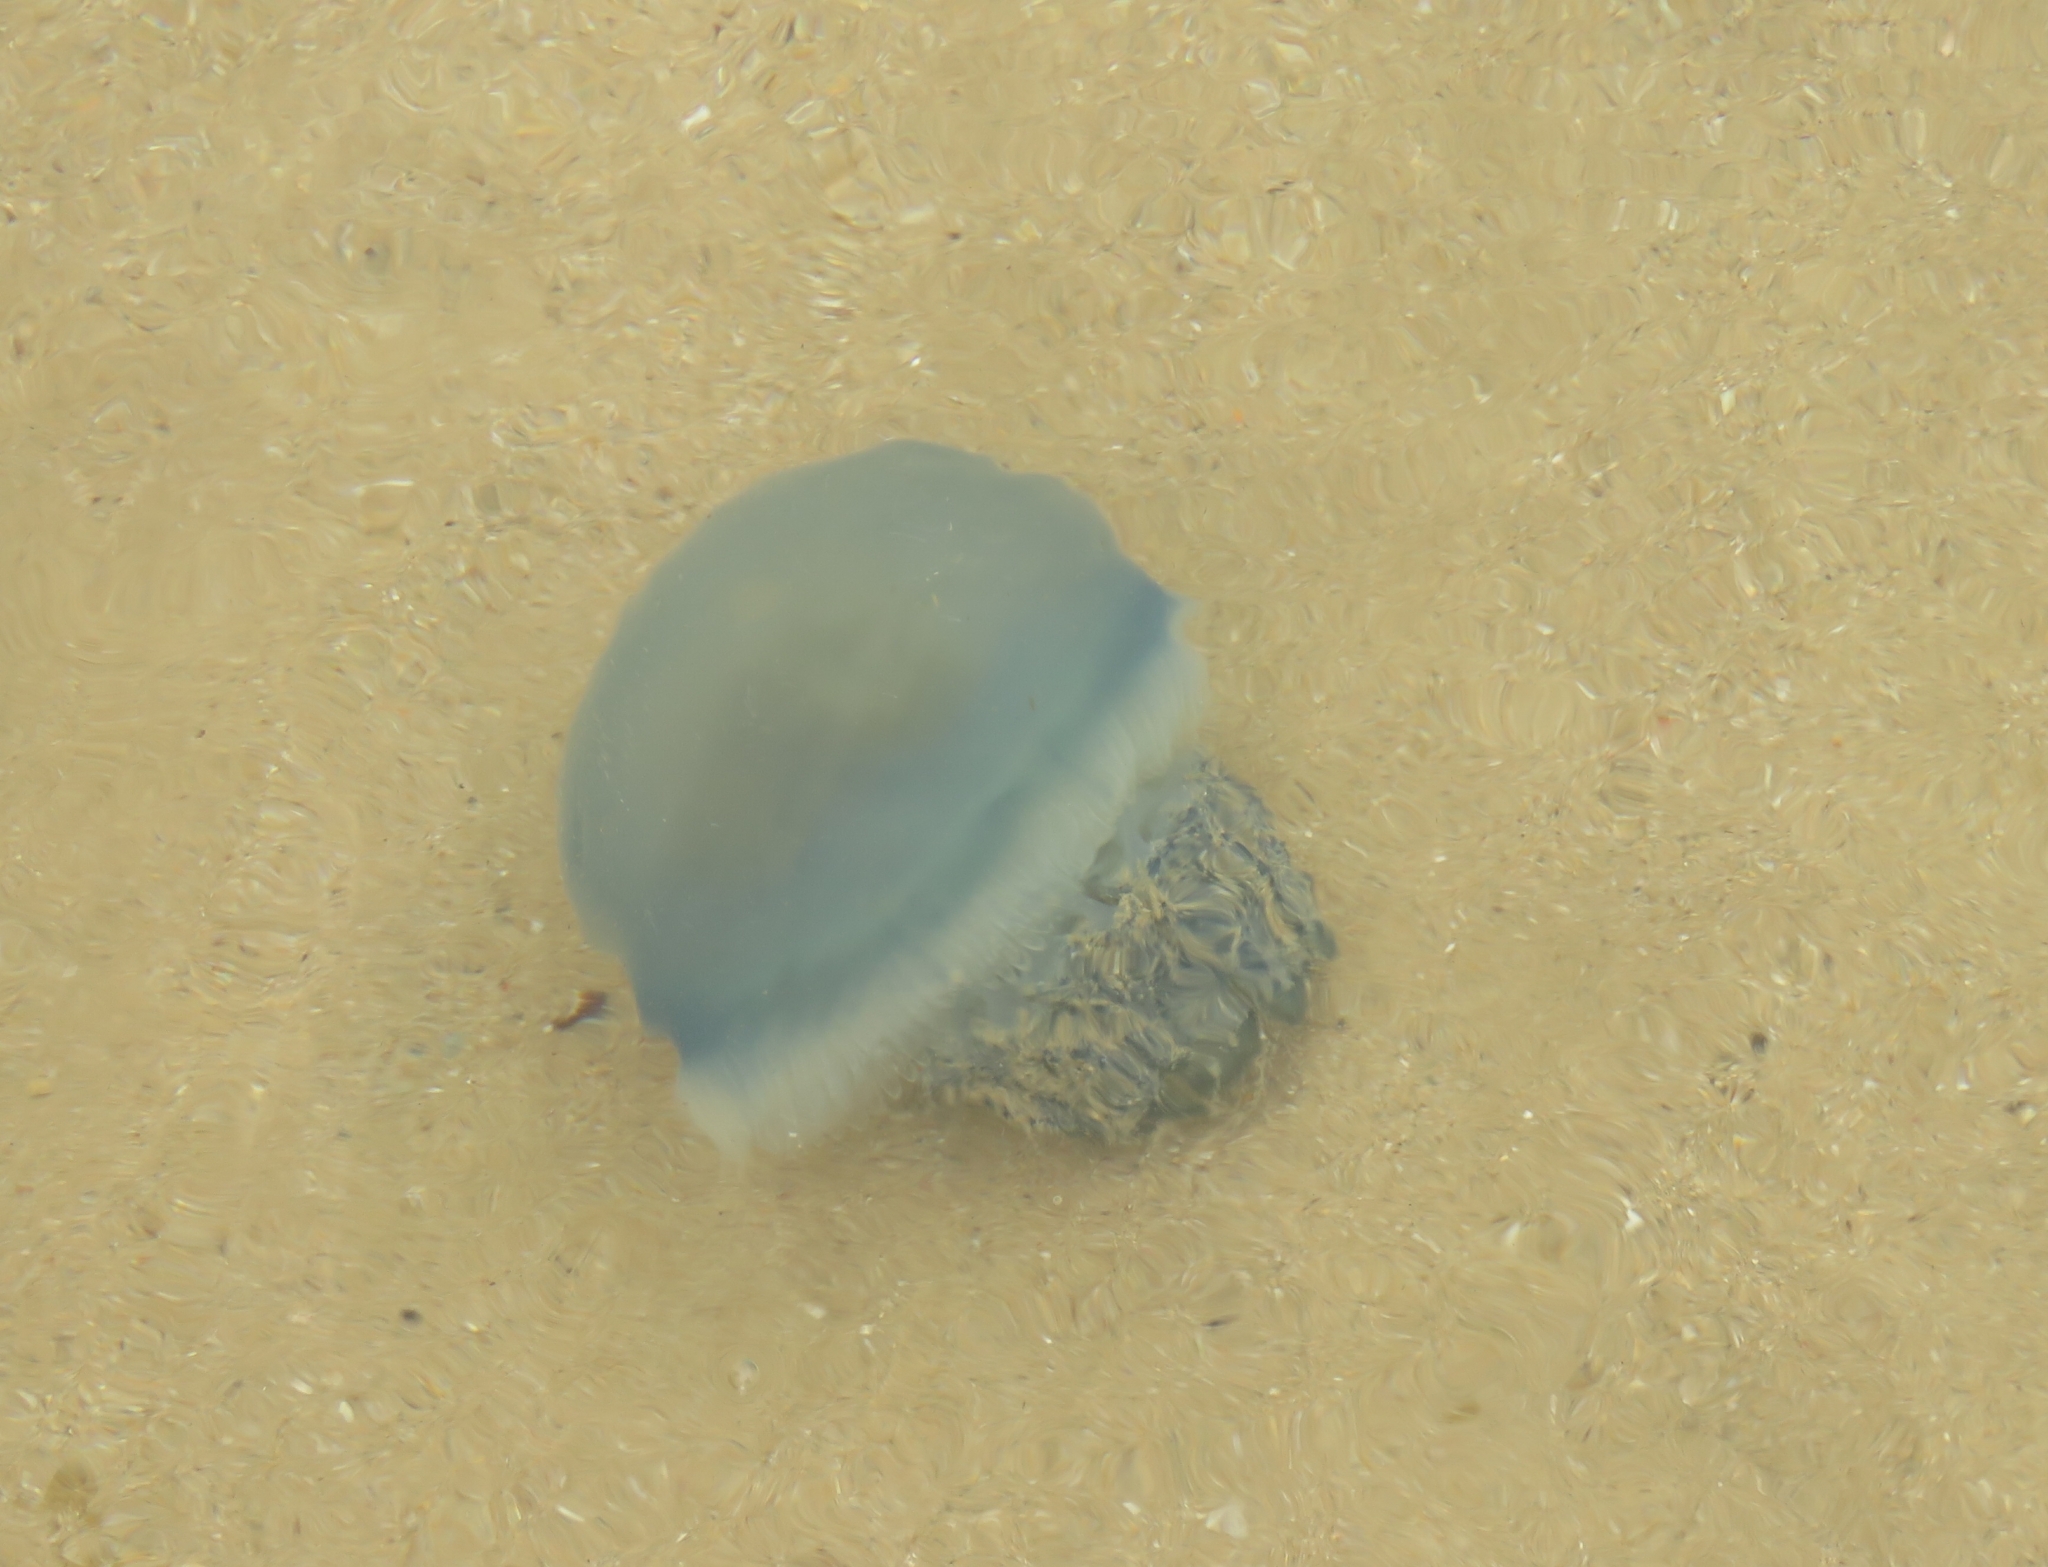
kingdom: Animalia
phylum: Cnidaria
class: Scyphozoa
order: Rhizostomeae
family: Catostylidae
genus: Crambionella
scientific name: Crambionella stuhlmanni
